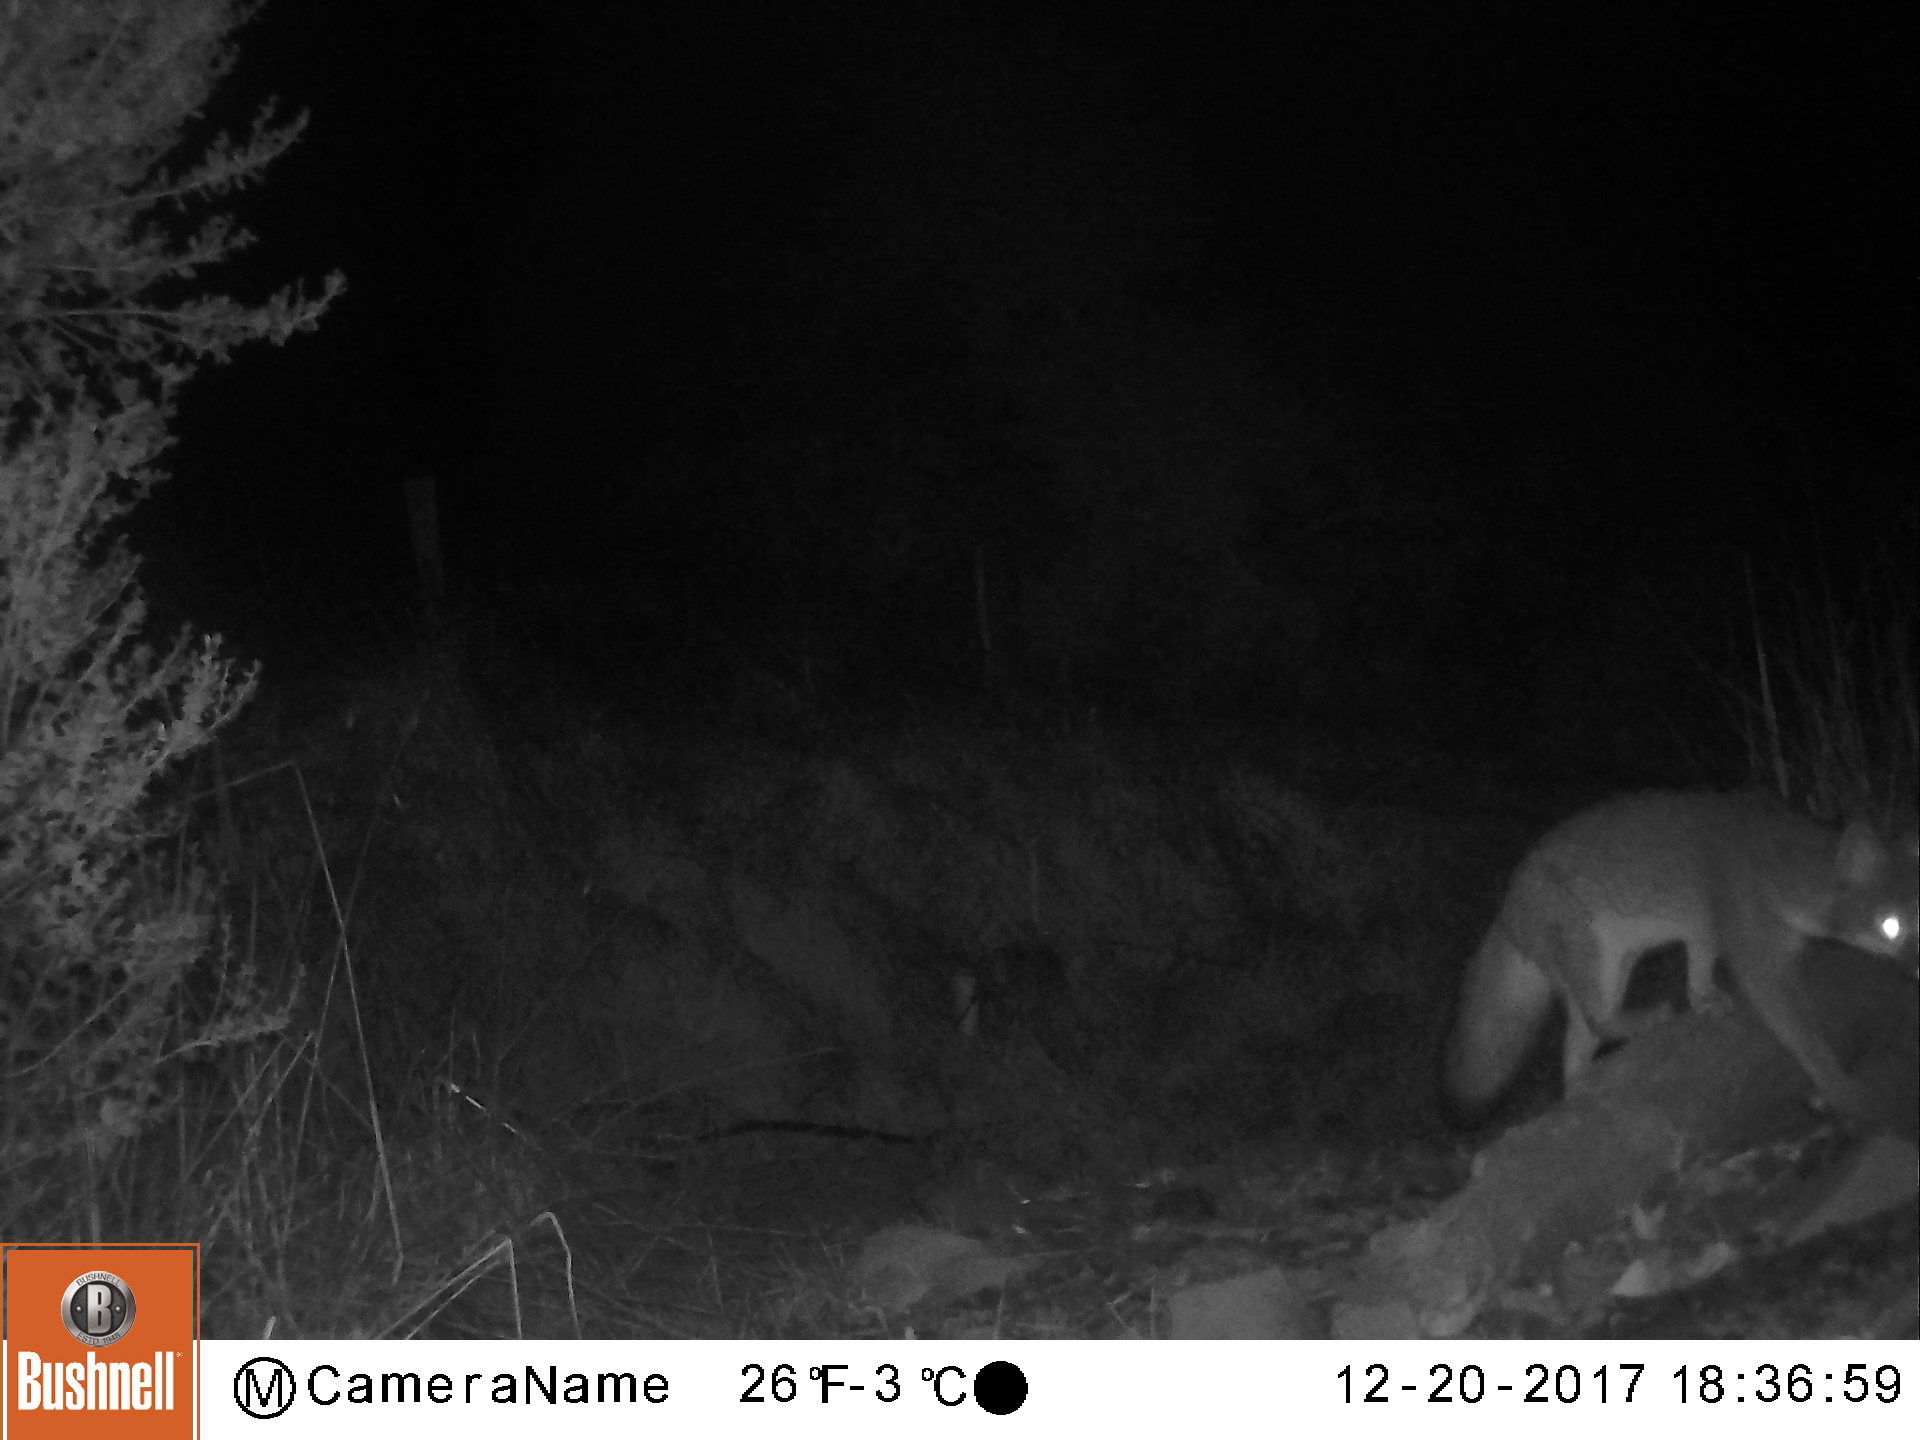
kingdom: Animalia
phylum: Chordata
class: Mammalia
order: Carnivora
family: Canidae
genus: Urocyon
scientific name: Urocyon cinereoargenteus
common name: Gray fox
